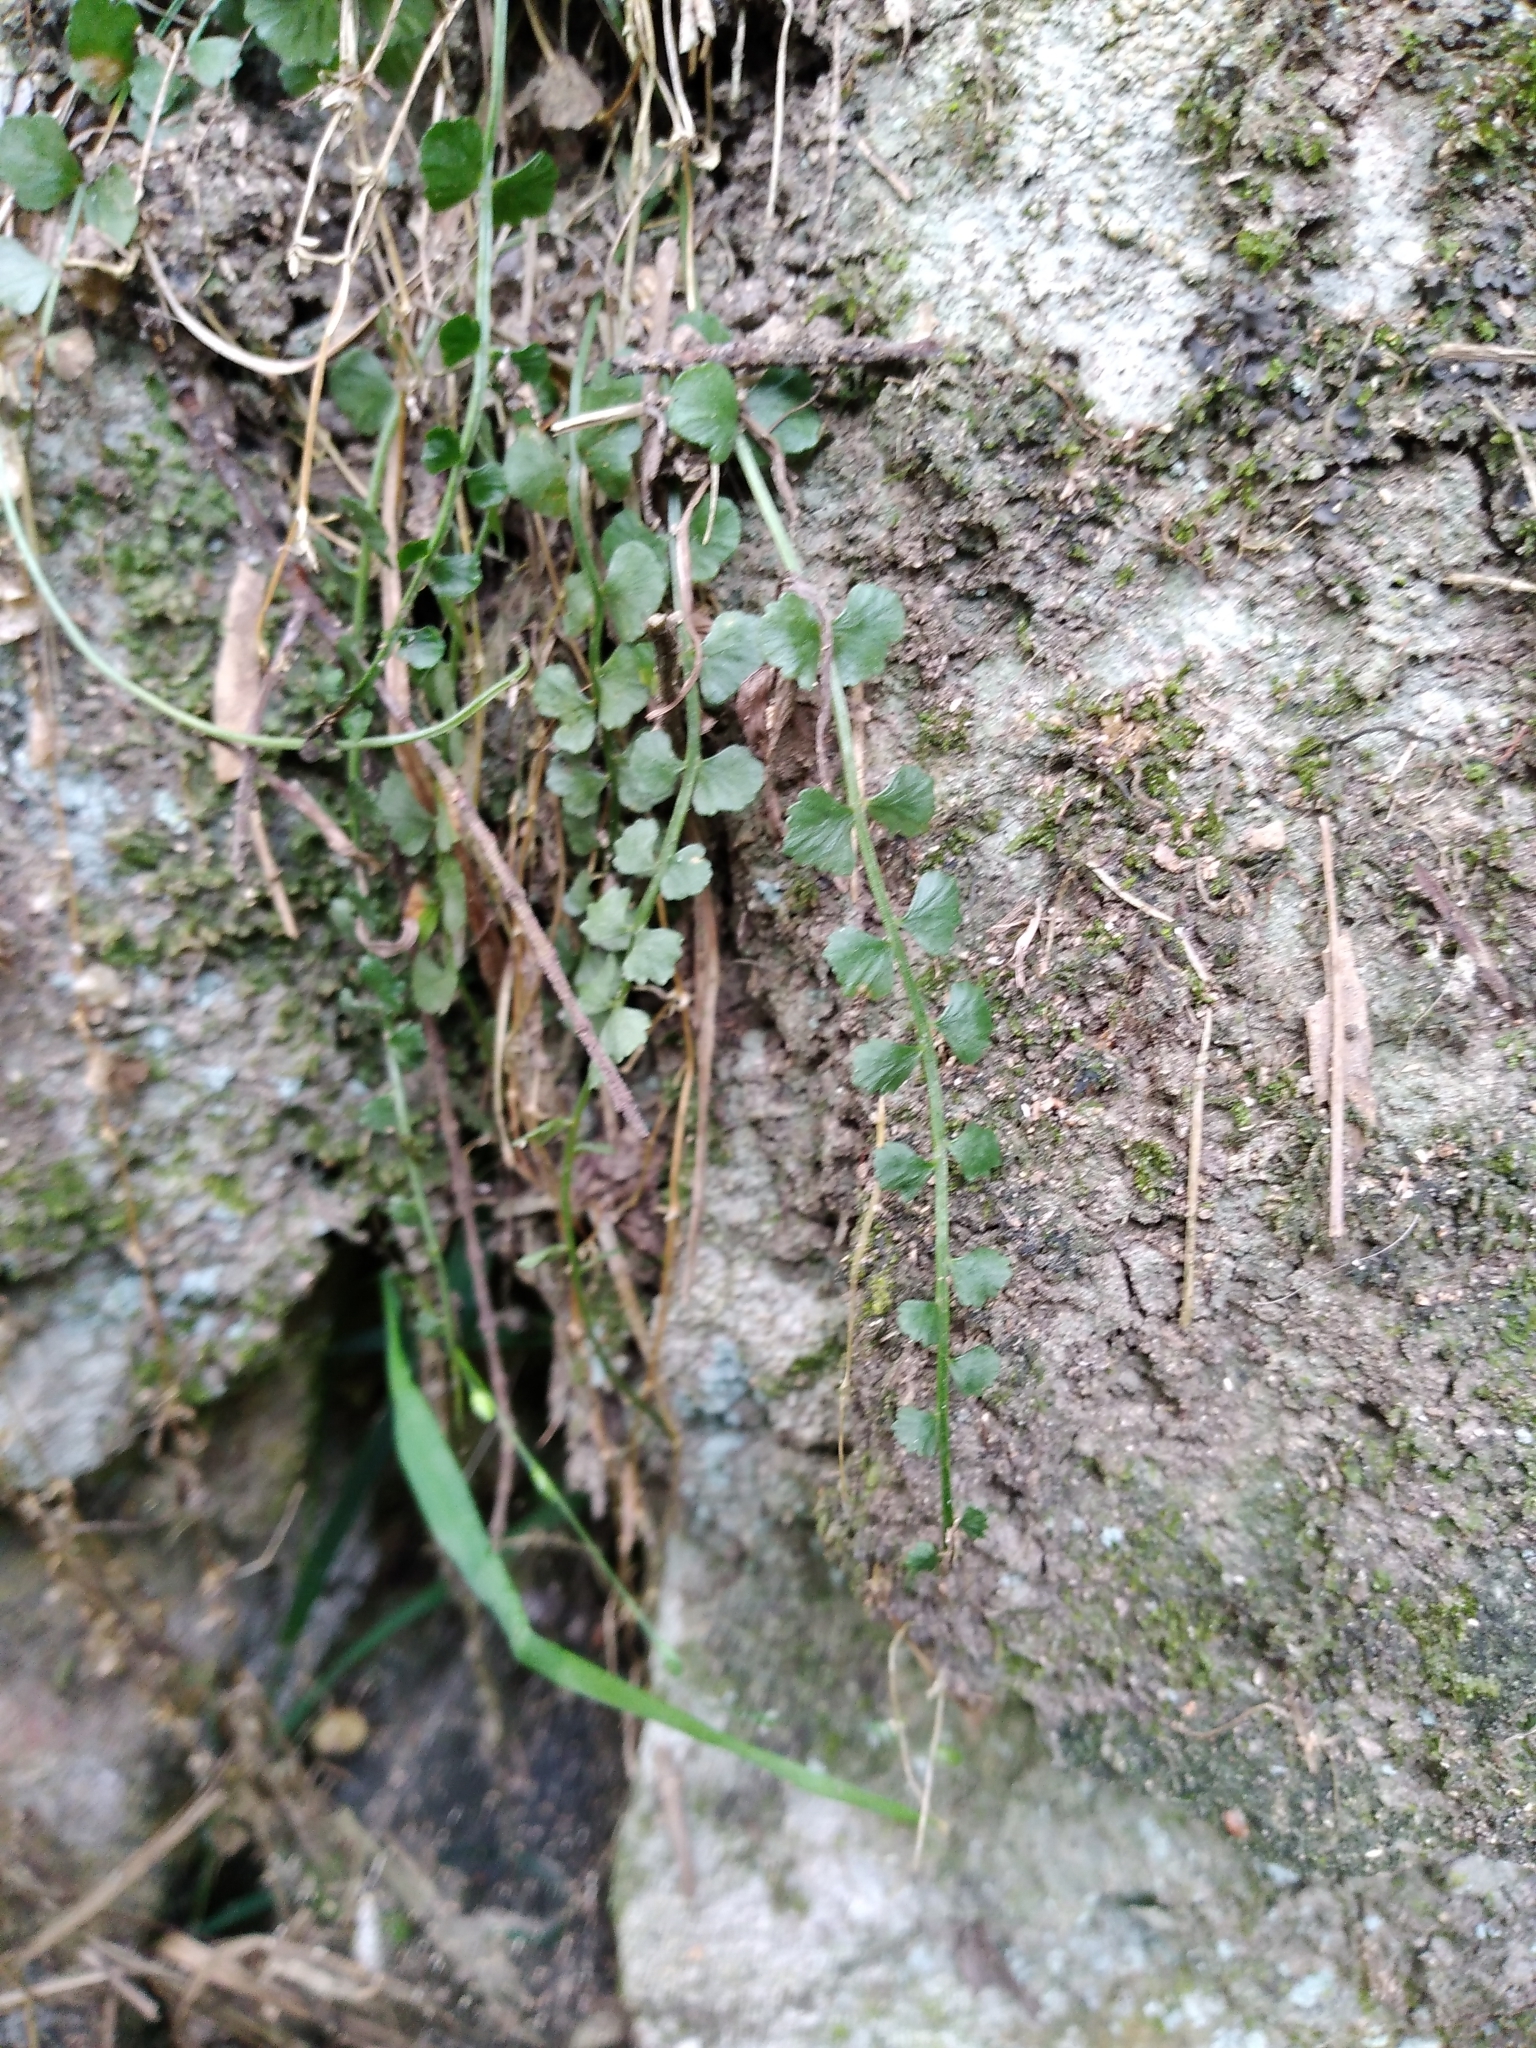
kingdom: Plantae
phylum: Tracheophyta
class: Polypodiopsida
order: Polypodiales
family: Aspleniaceae
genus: Asplenium
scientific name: Asplenium flabellifolium
